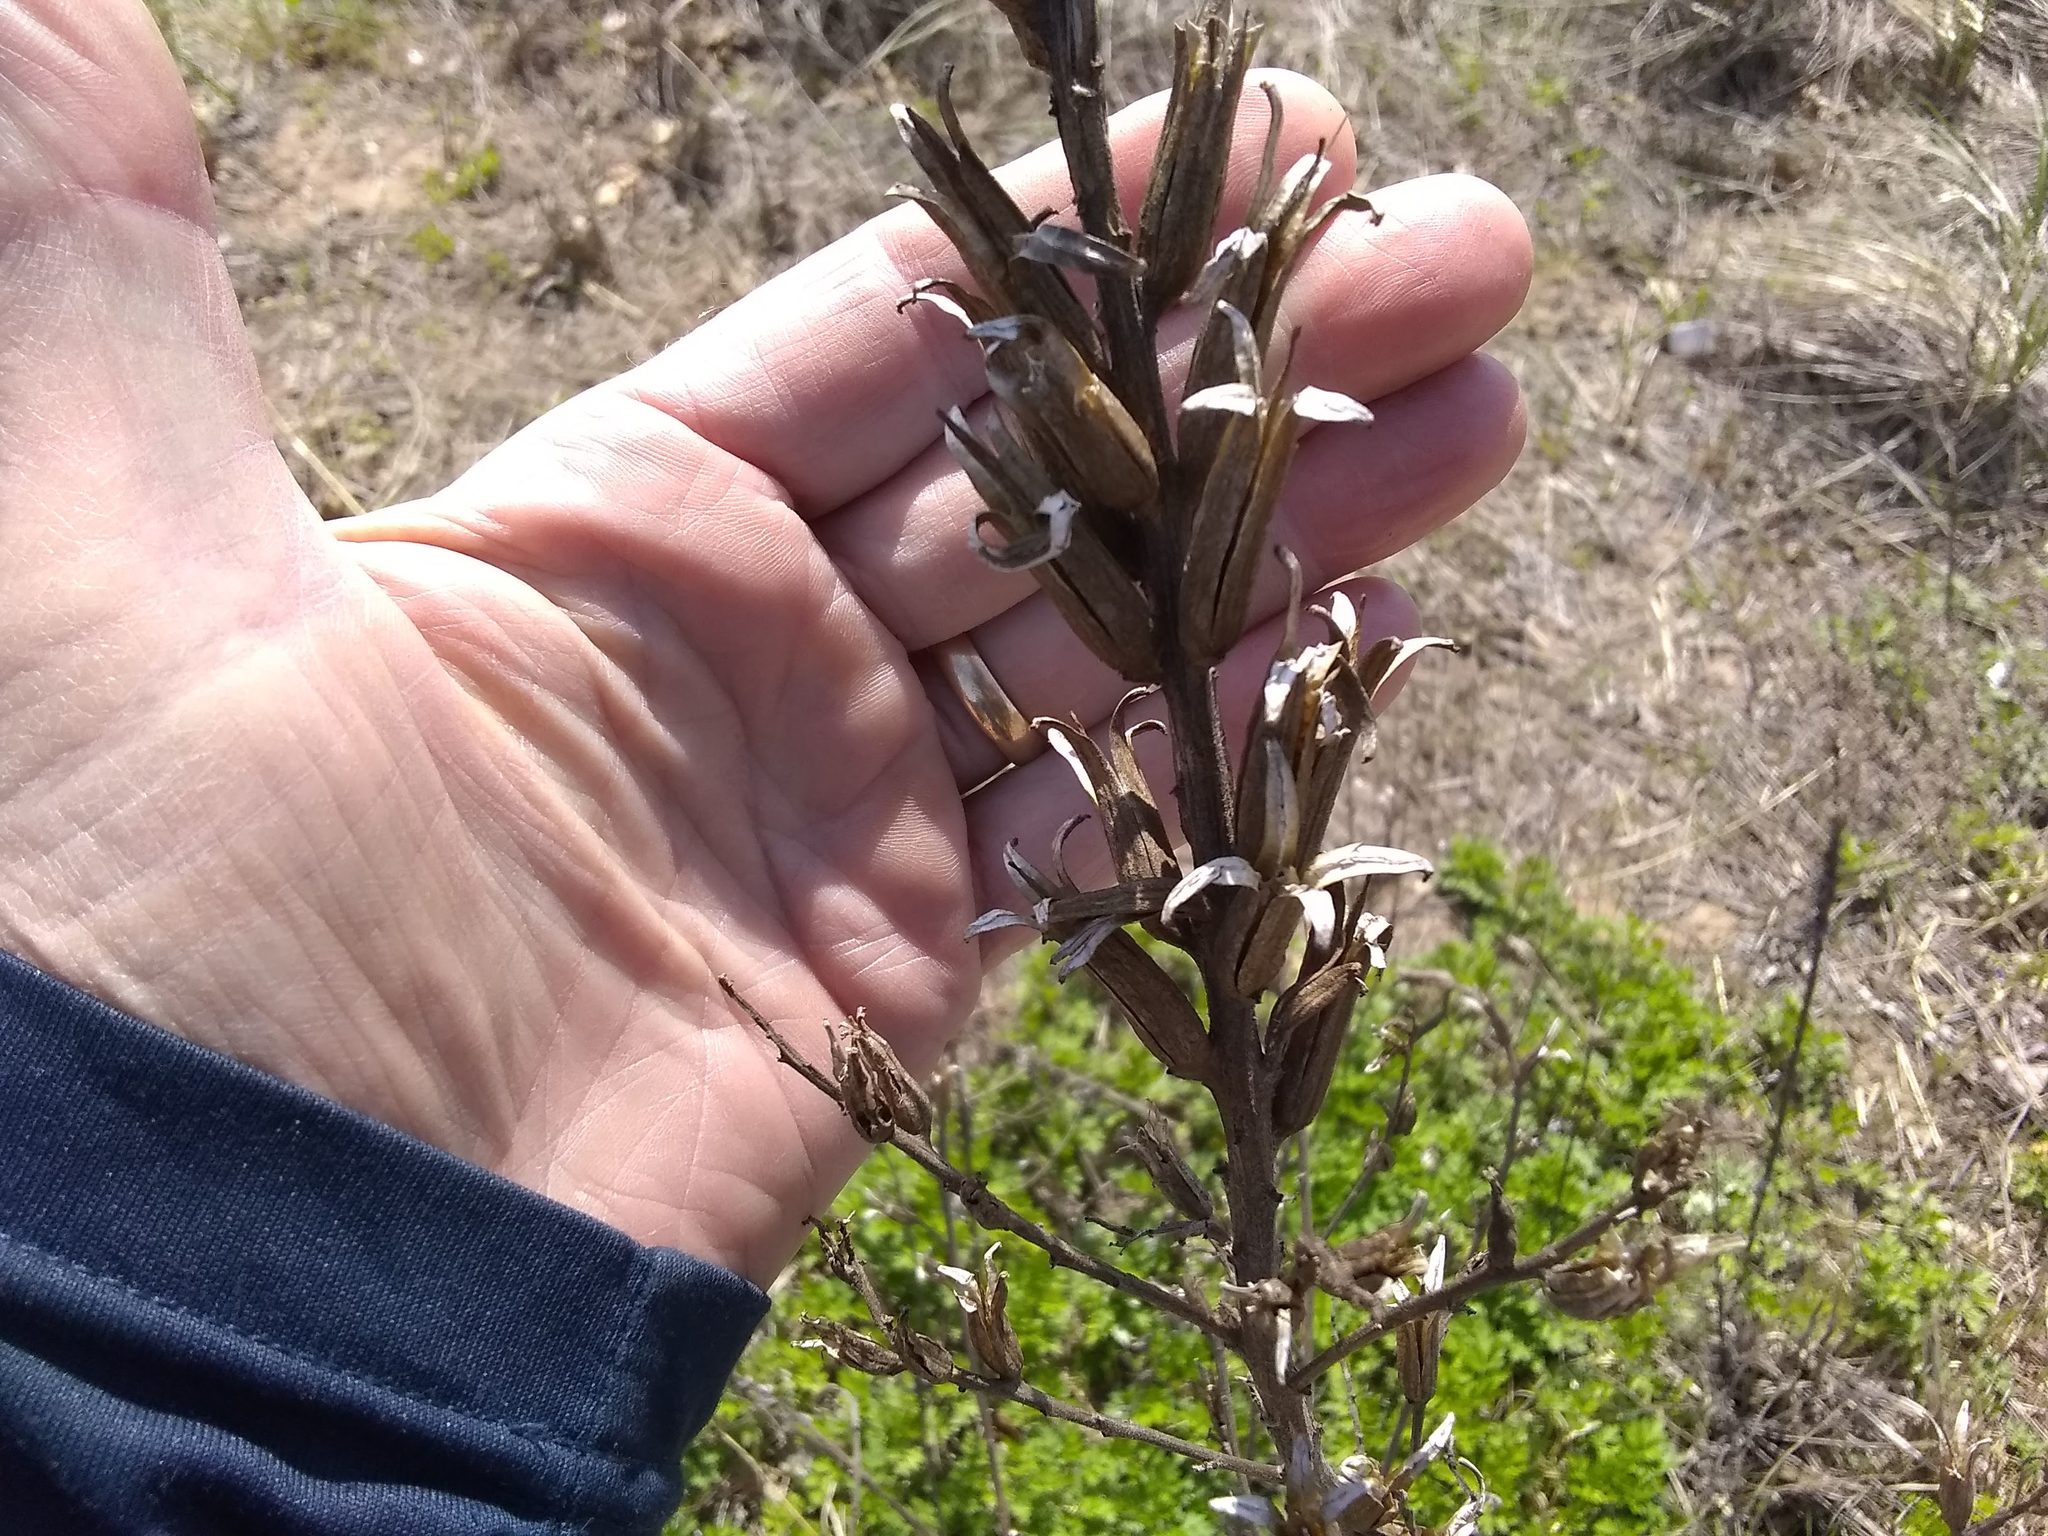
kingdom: Plantae
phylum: Tracheophyta
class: Magnoliopsida
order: Myrtales
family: Onagraceae
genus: Oenothera
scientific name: Oenothera biennis
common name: Common evening-primrose
